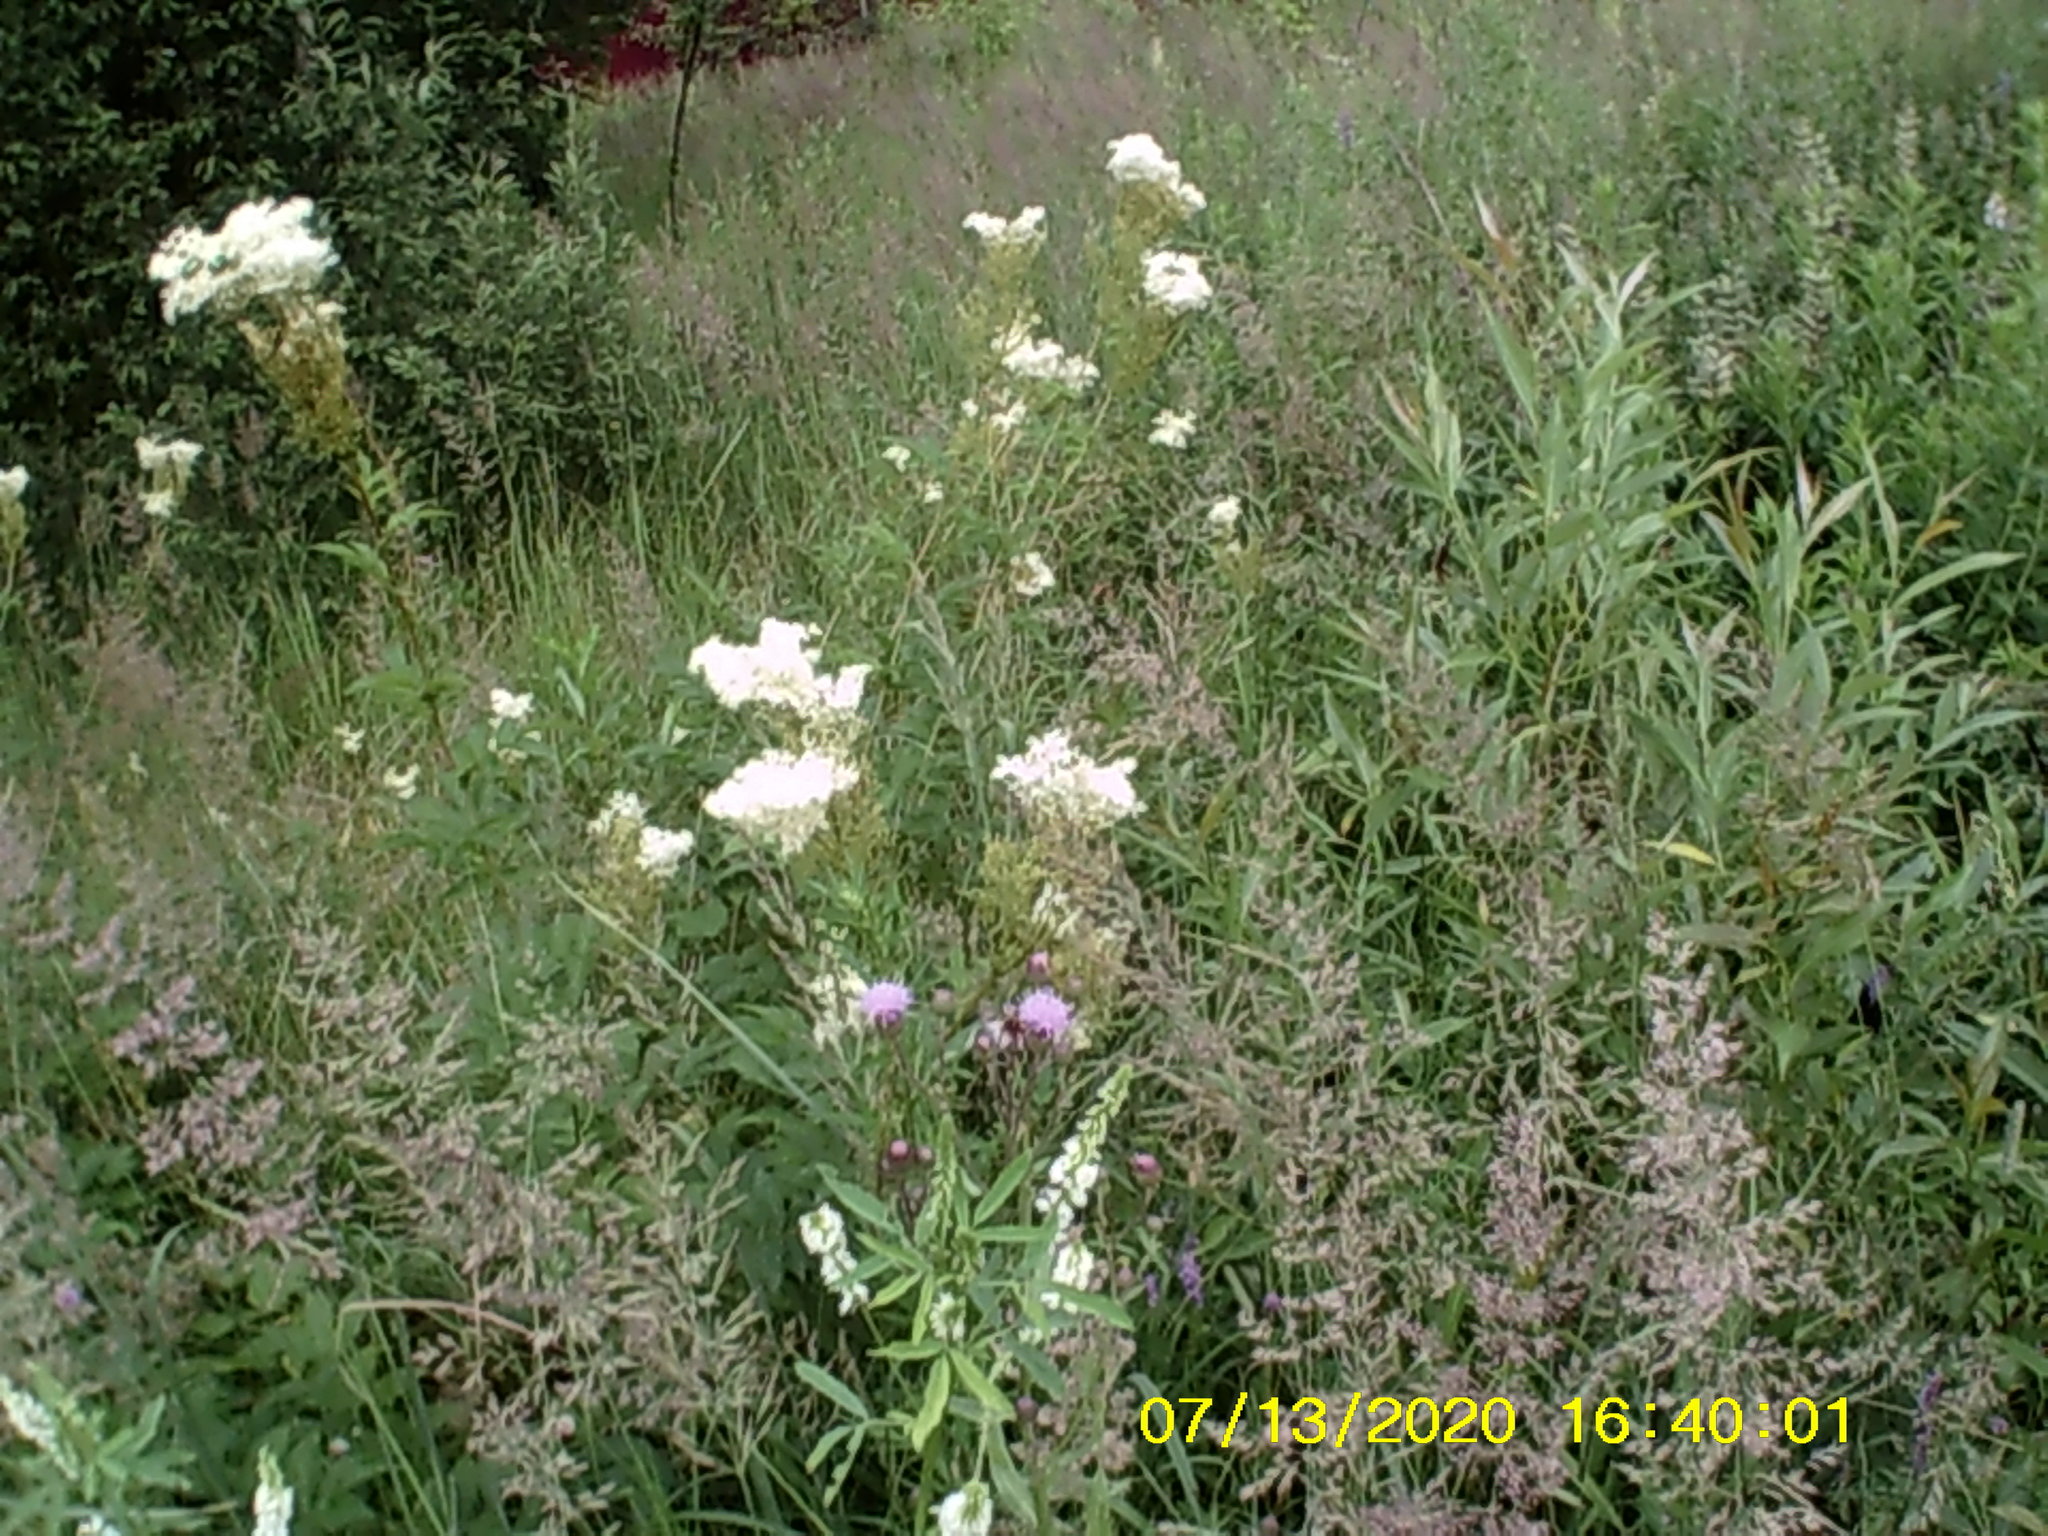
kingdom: Plantae
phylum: Tracheophyta
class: Magnoliopsida
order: Fabales
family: Fabaceae
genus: Melilotus
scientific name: Melilotus albus
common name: White melilot
